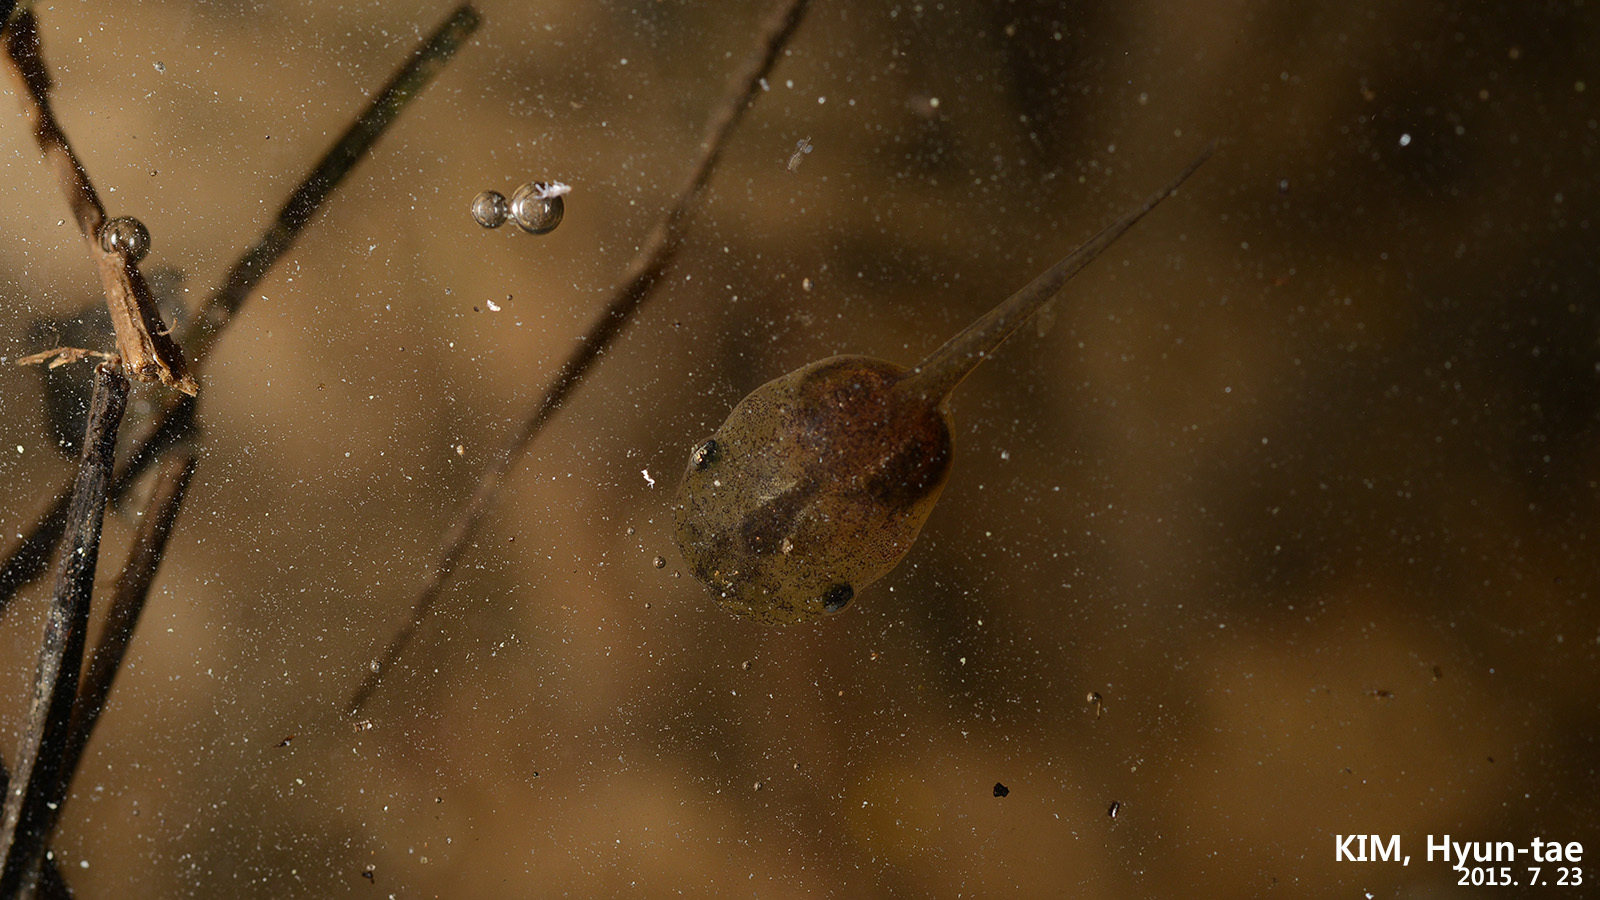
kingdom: Animalia
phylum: Chordata
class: Amphibia
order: Anura
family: Microhylidae
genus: Kaloula
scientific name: Kaloula borealis
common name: Boreal digging frog
